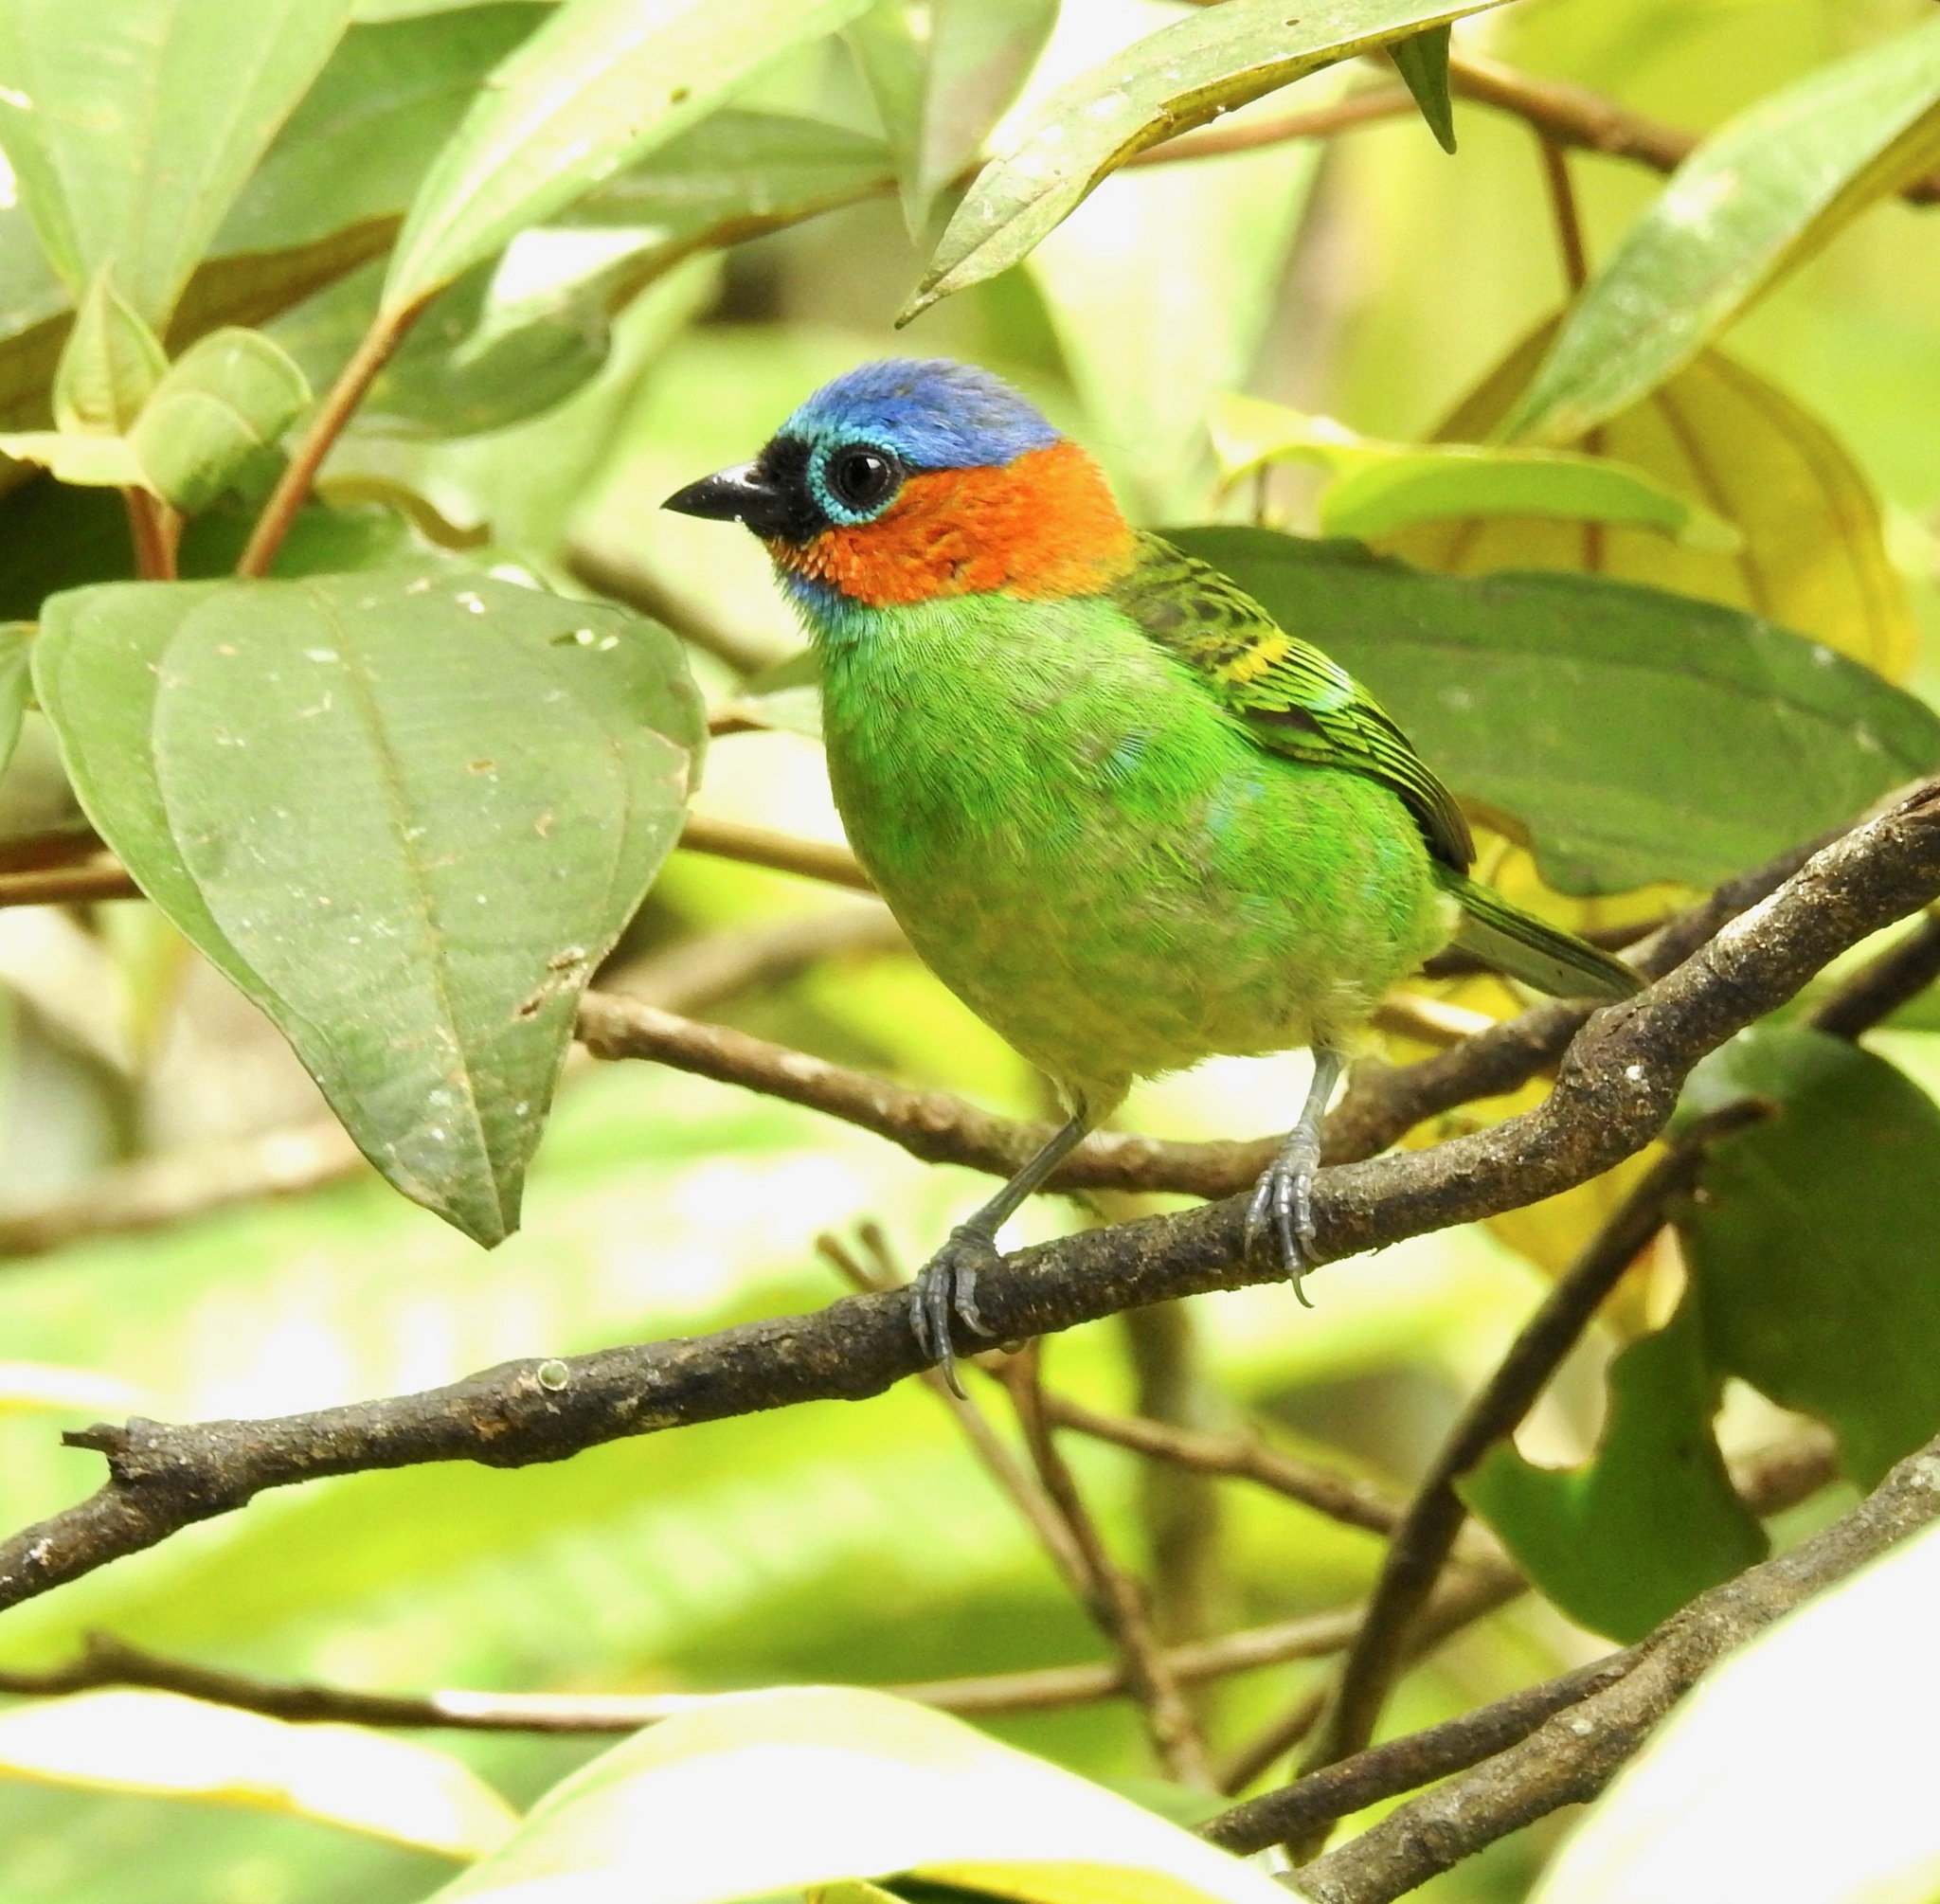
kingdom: Animalia
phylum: Chordata
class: Aves
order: Passeriformes
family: Thraupidae
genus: Tangara
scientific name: Tangara cyanocephala
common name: Red-necked tanager
